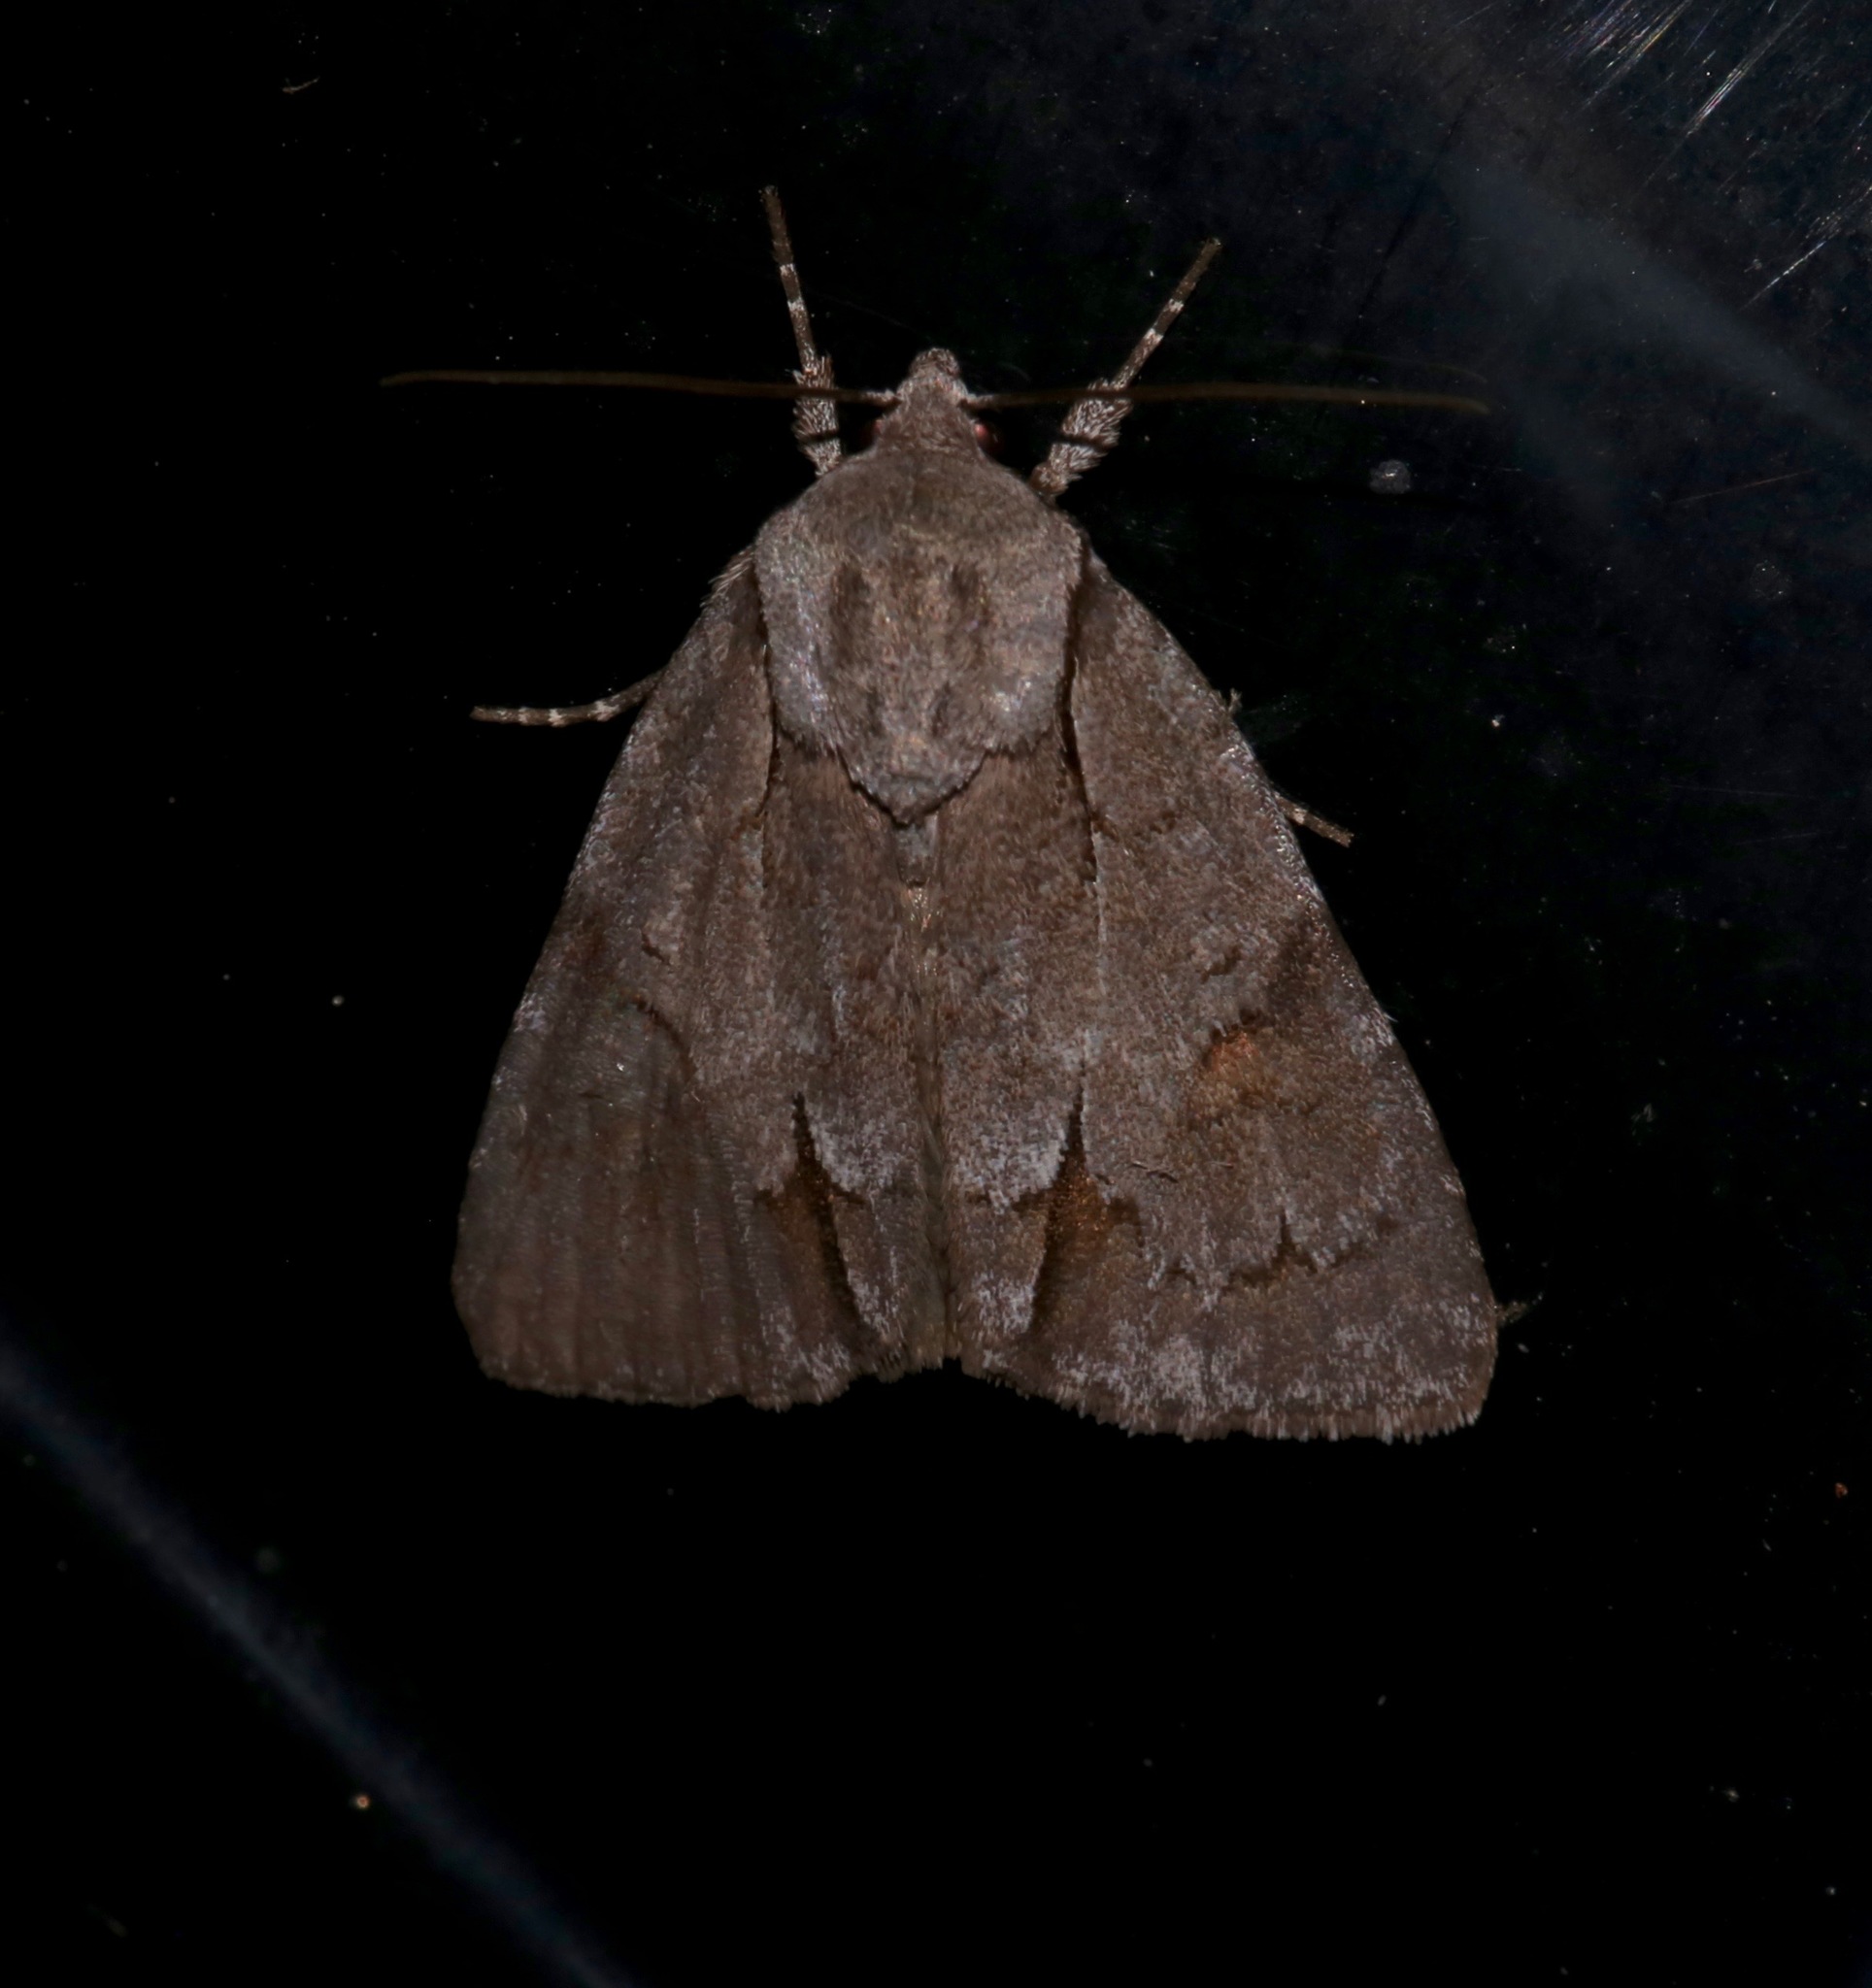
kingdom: Animalia
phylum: Arthropoda
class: Insecta
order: Lepidoptera
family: Noctuidae
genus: Acronicta
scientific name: Acronicta tritona
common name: Triton dagger
